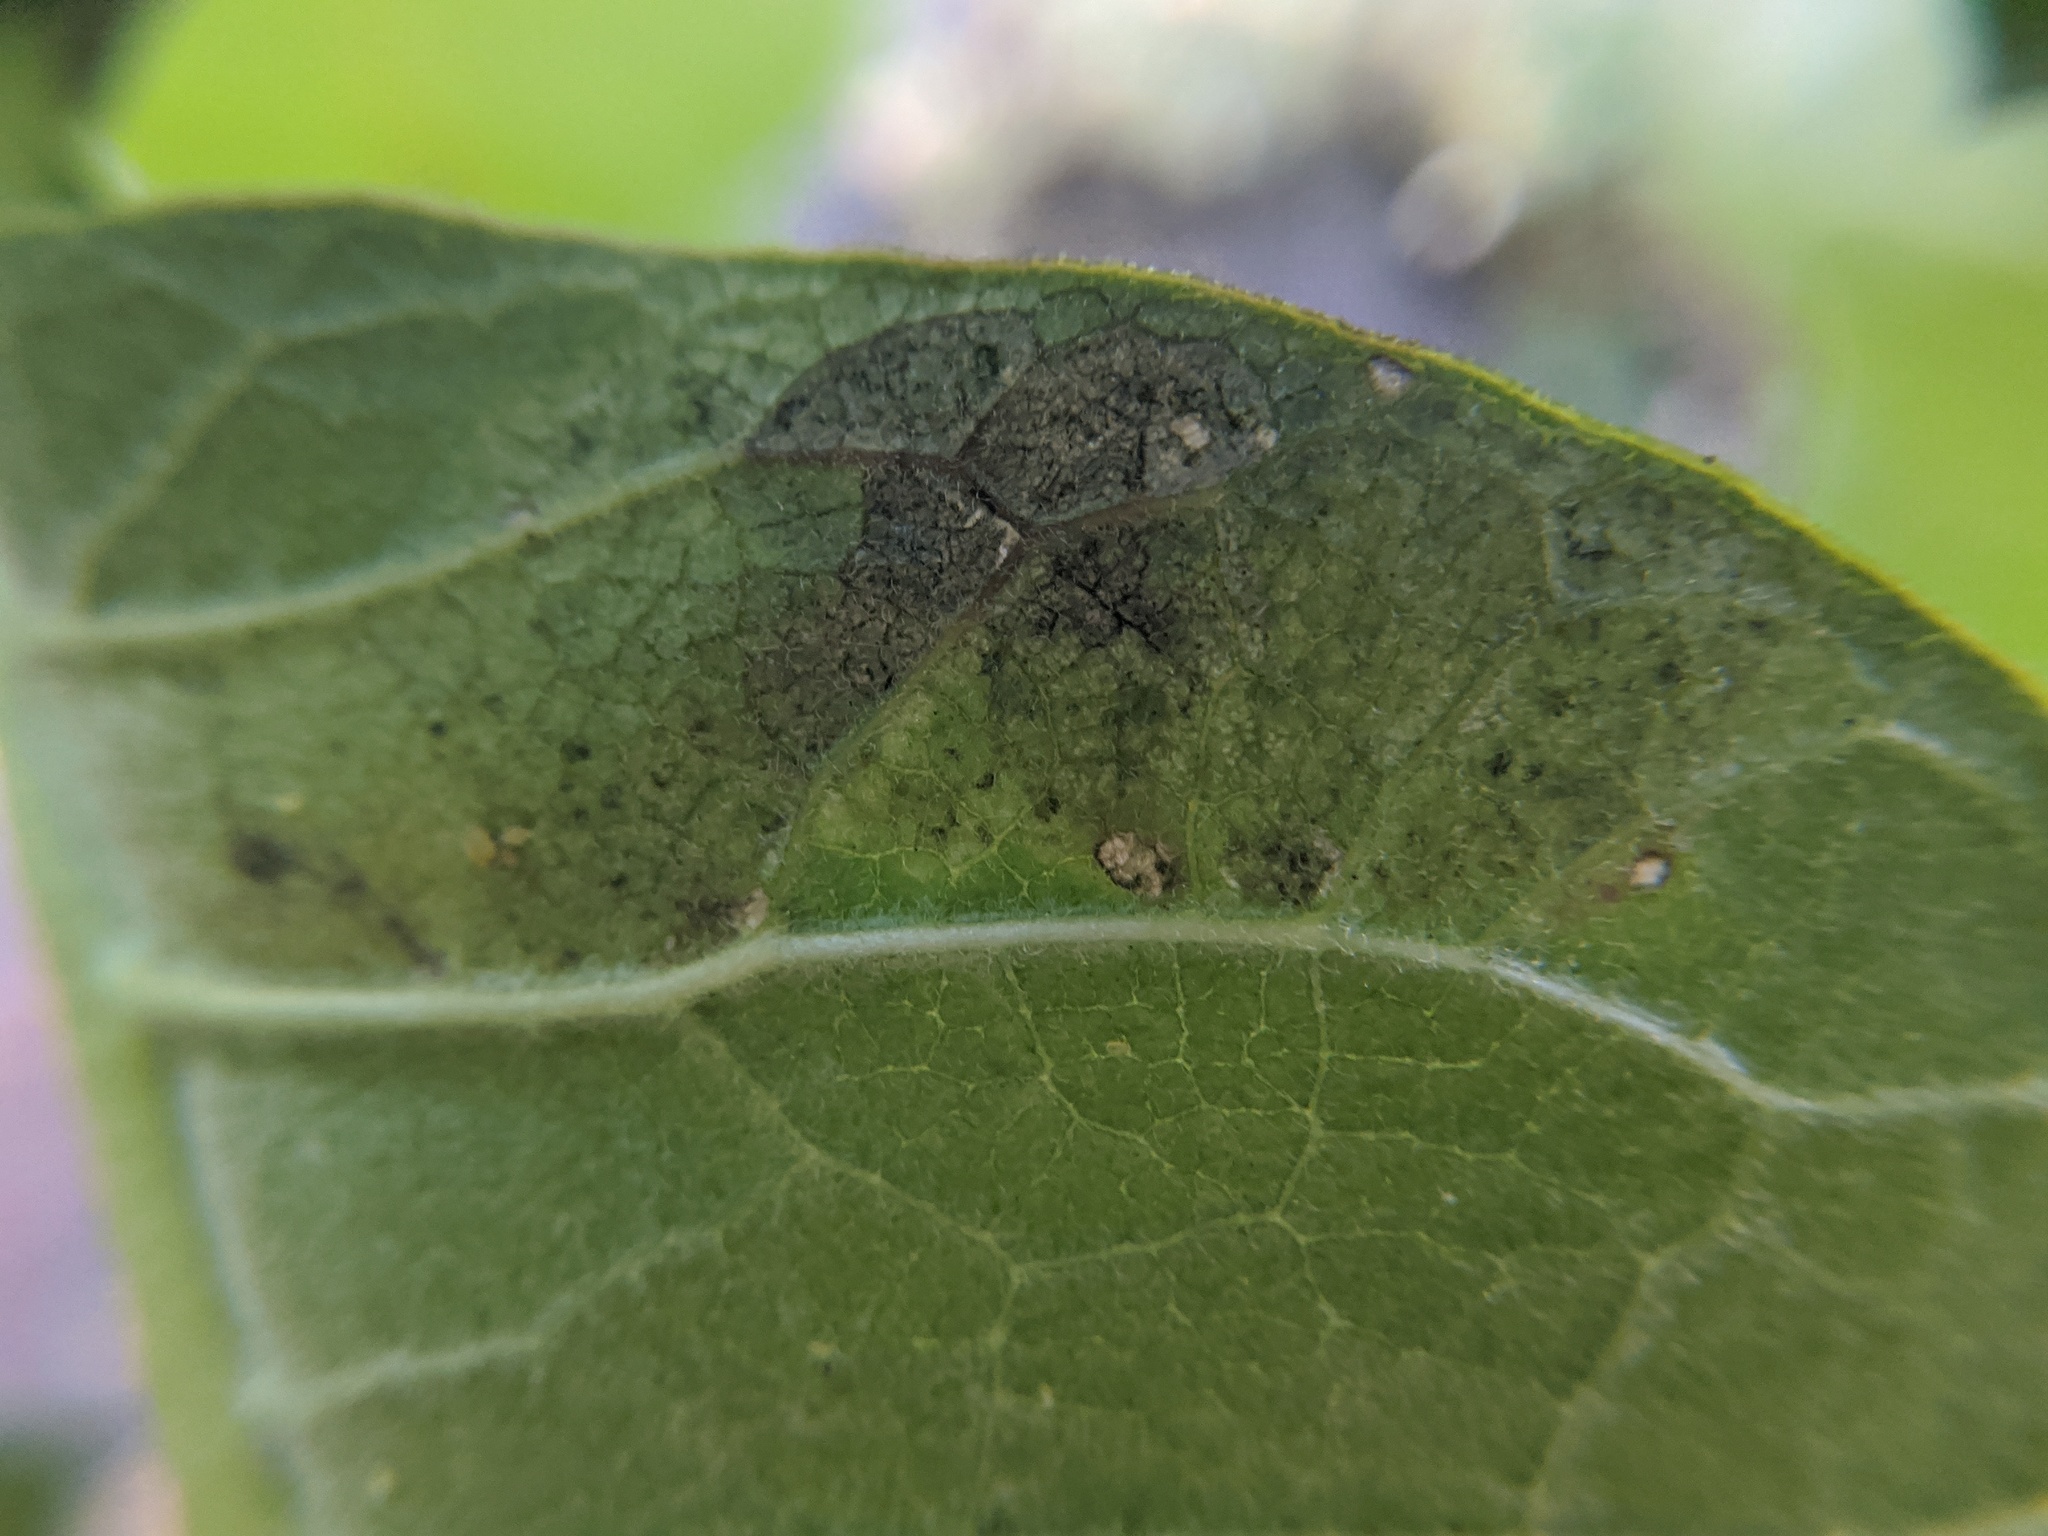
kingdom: Animalia
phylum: Arthropoda
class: Insecta
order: Diptera
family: Agromyzidae
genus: Liriomyza
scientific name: Liriomyza asclepiadis
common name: Milkweed leaf-miner fly
